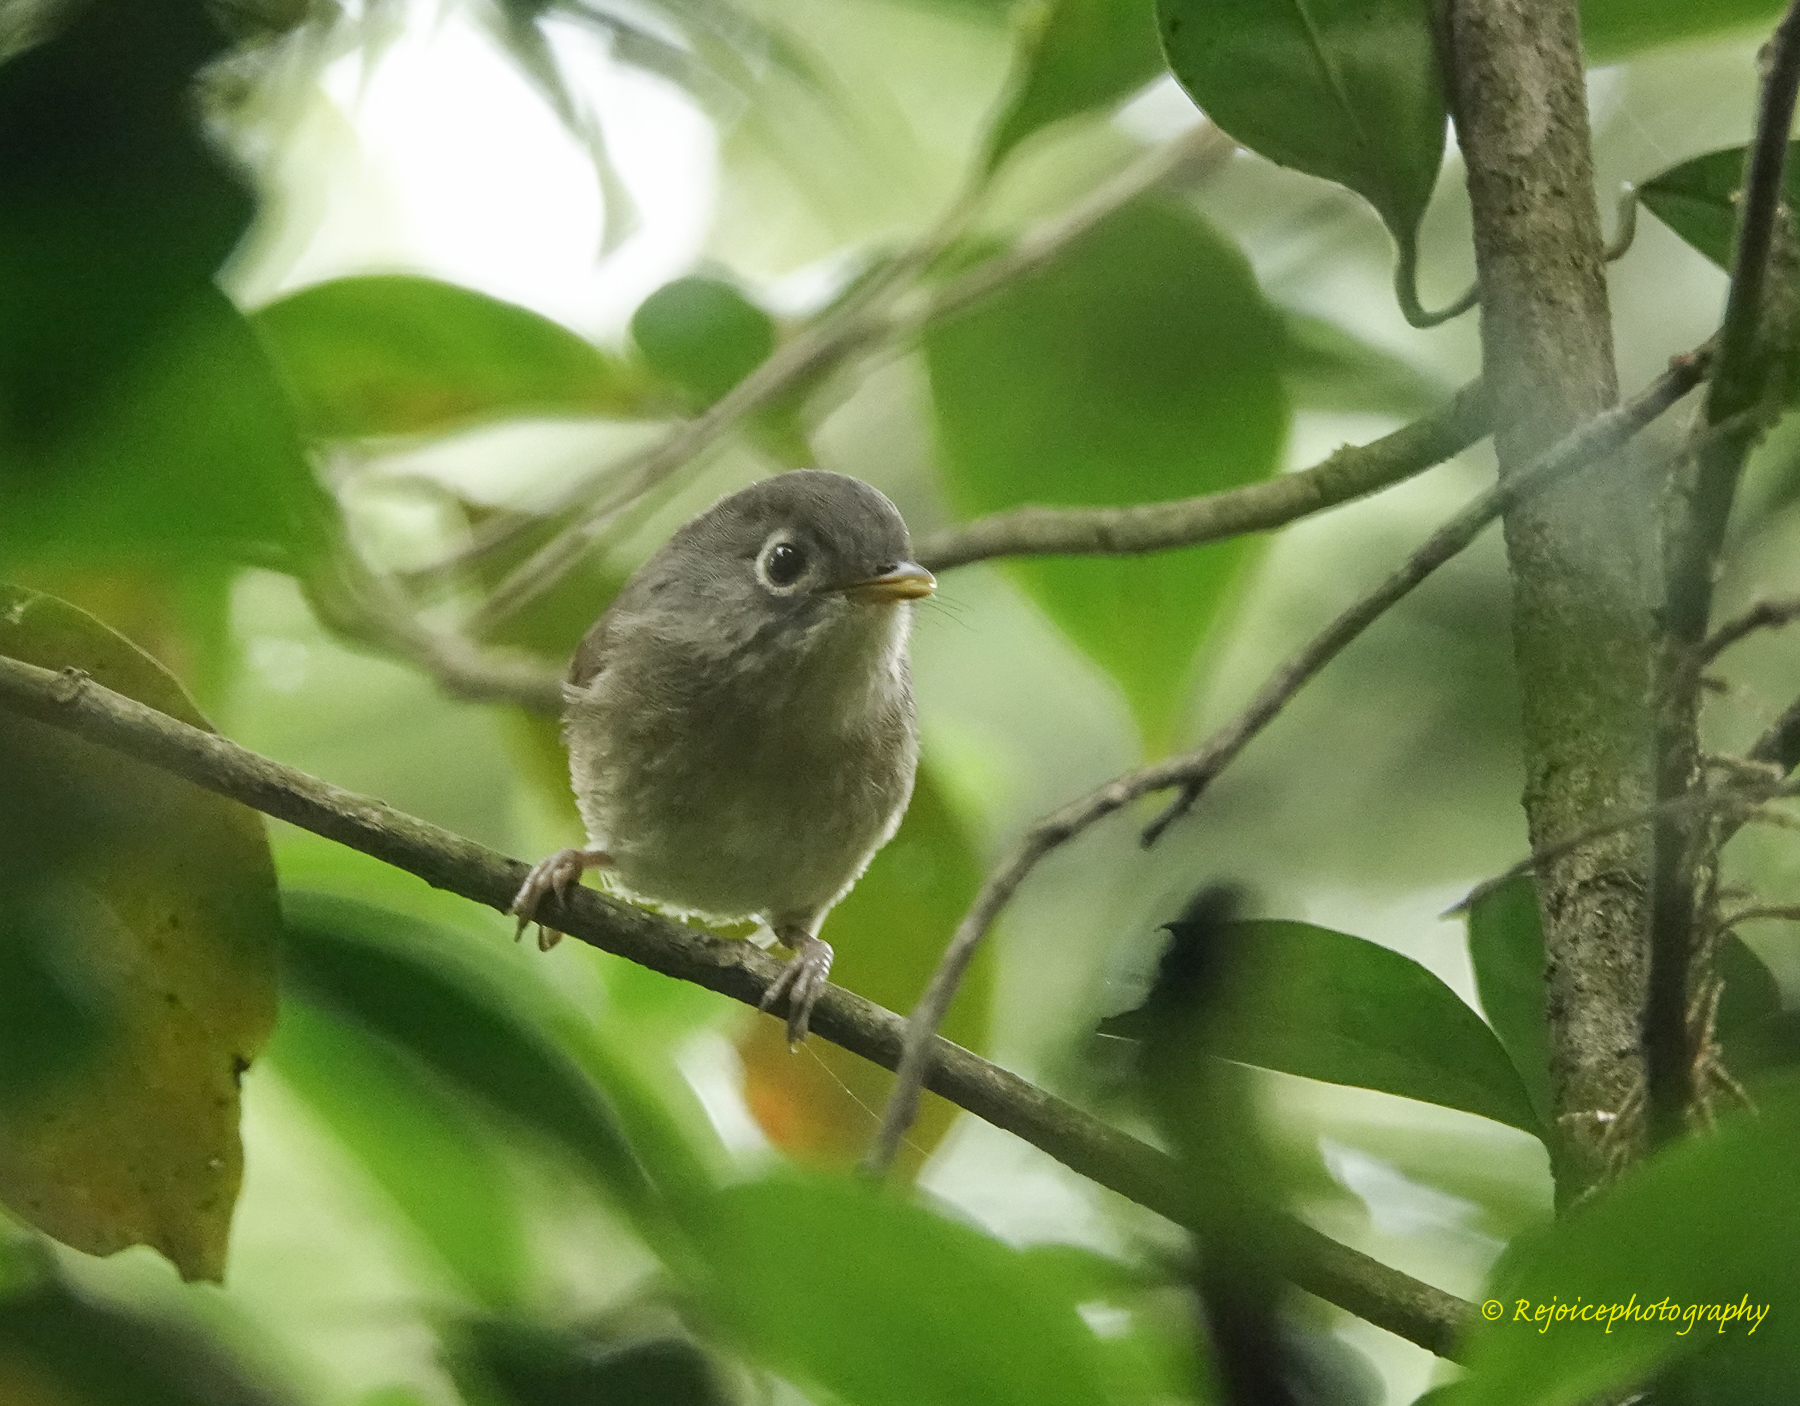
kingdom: Animalia
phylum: Chordata
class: Aves
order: Passeriformes
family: Pellorneidae
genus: Alcippe
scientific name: Alcippe nipalensis
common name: Nepal fulvetta
